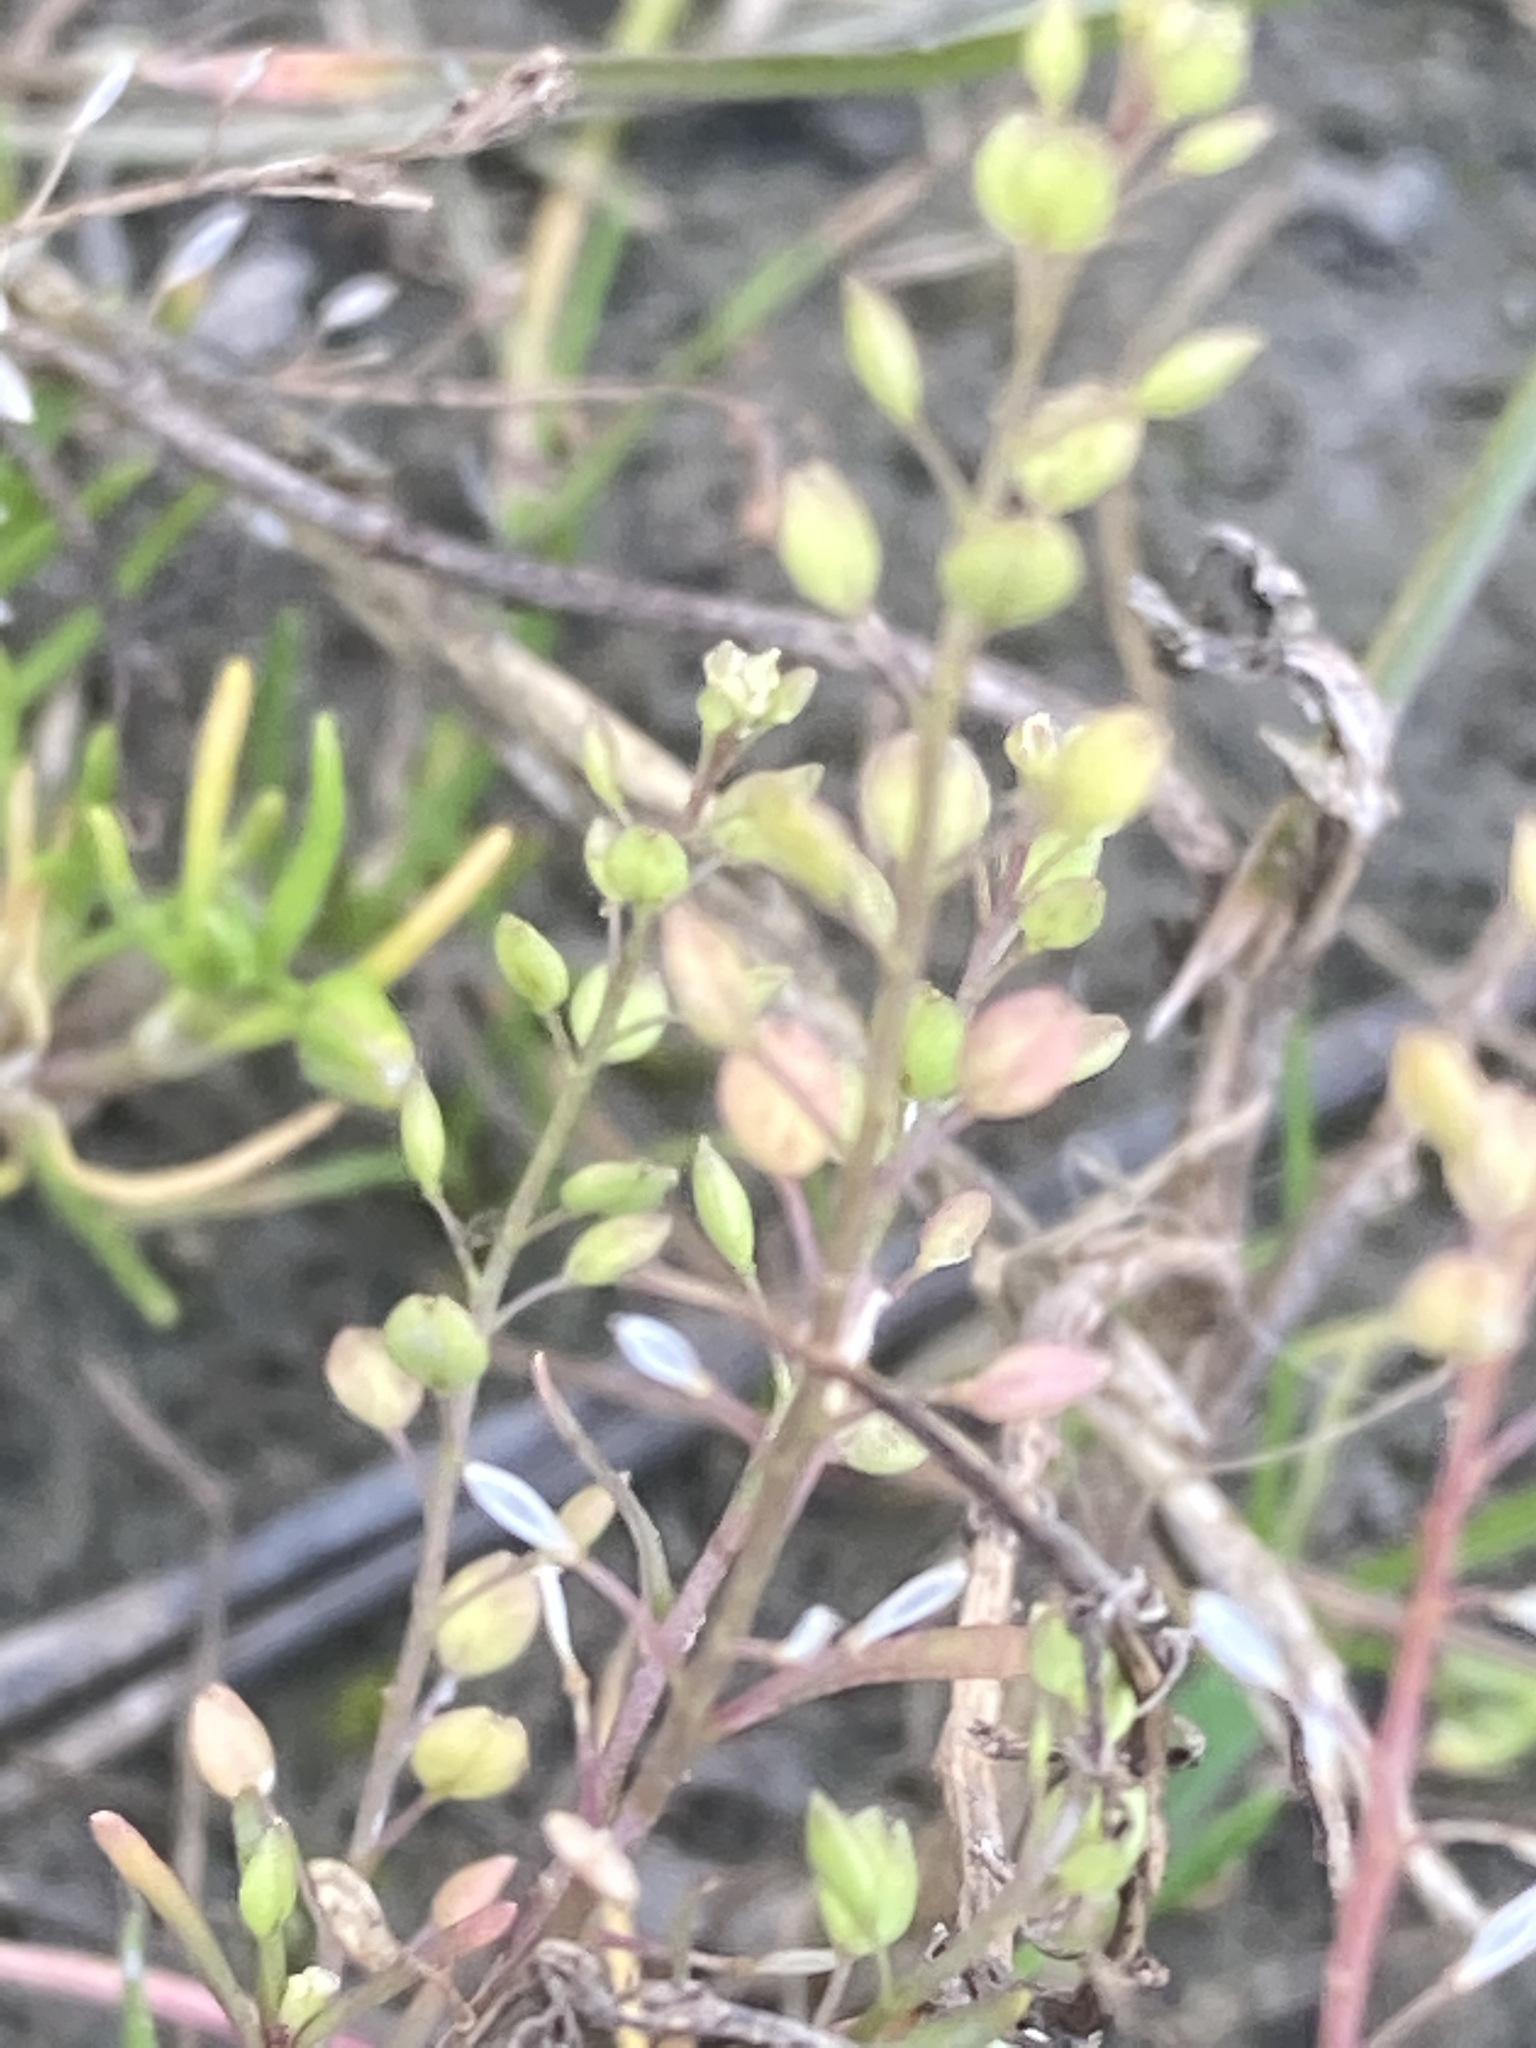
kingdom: Plantae
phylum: Tracheophyta
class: Magnoliopsida
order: Brassicales
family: Brassicaceae
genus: Lepidium
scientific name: Lepidium ruderale
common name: Narrow-leaved pepperwort
